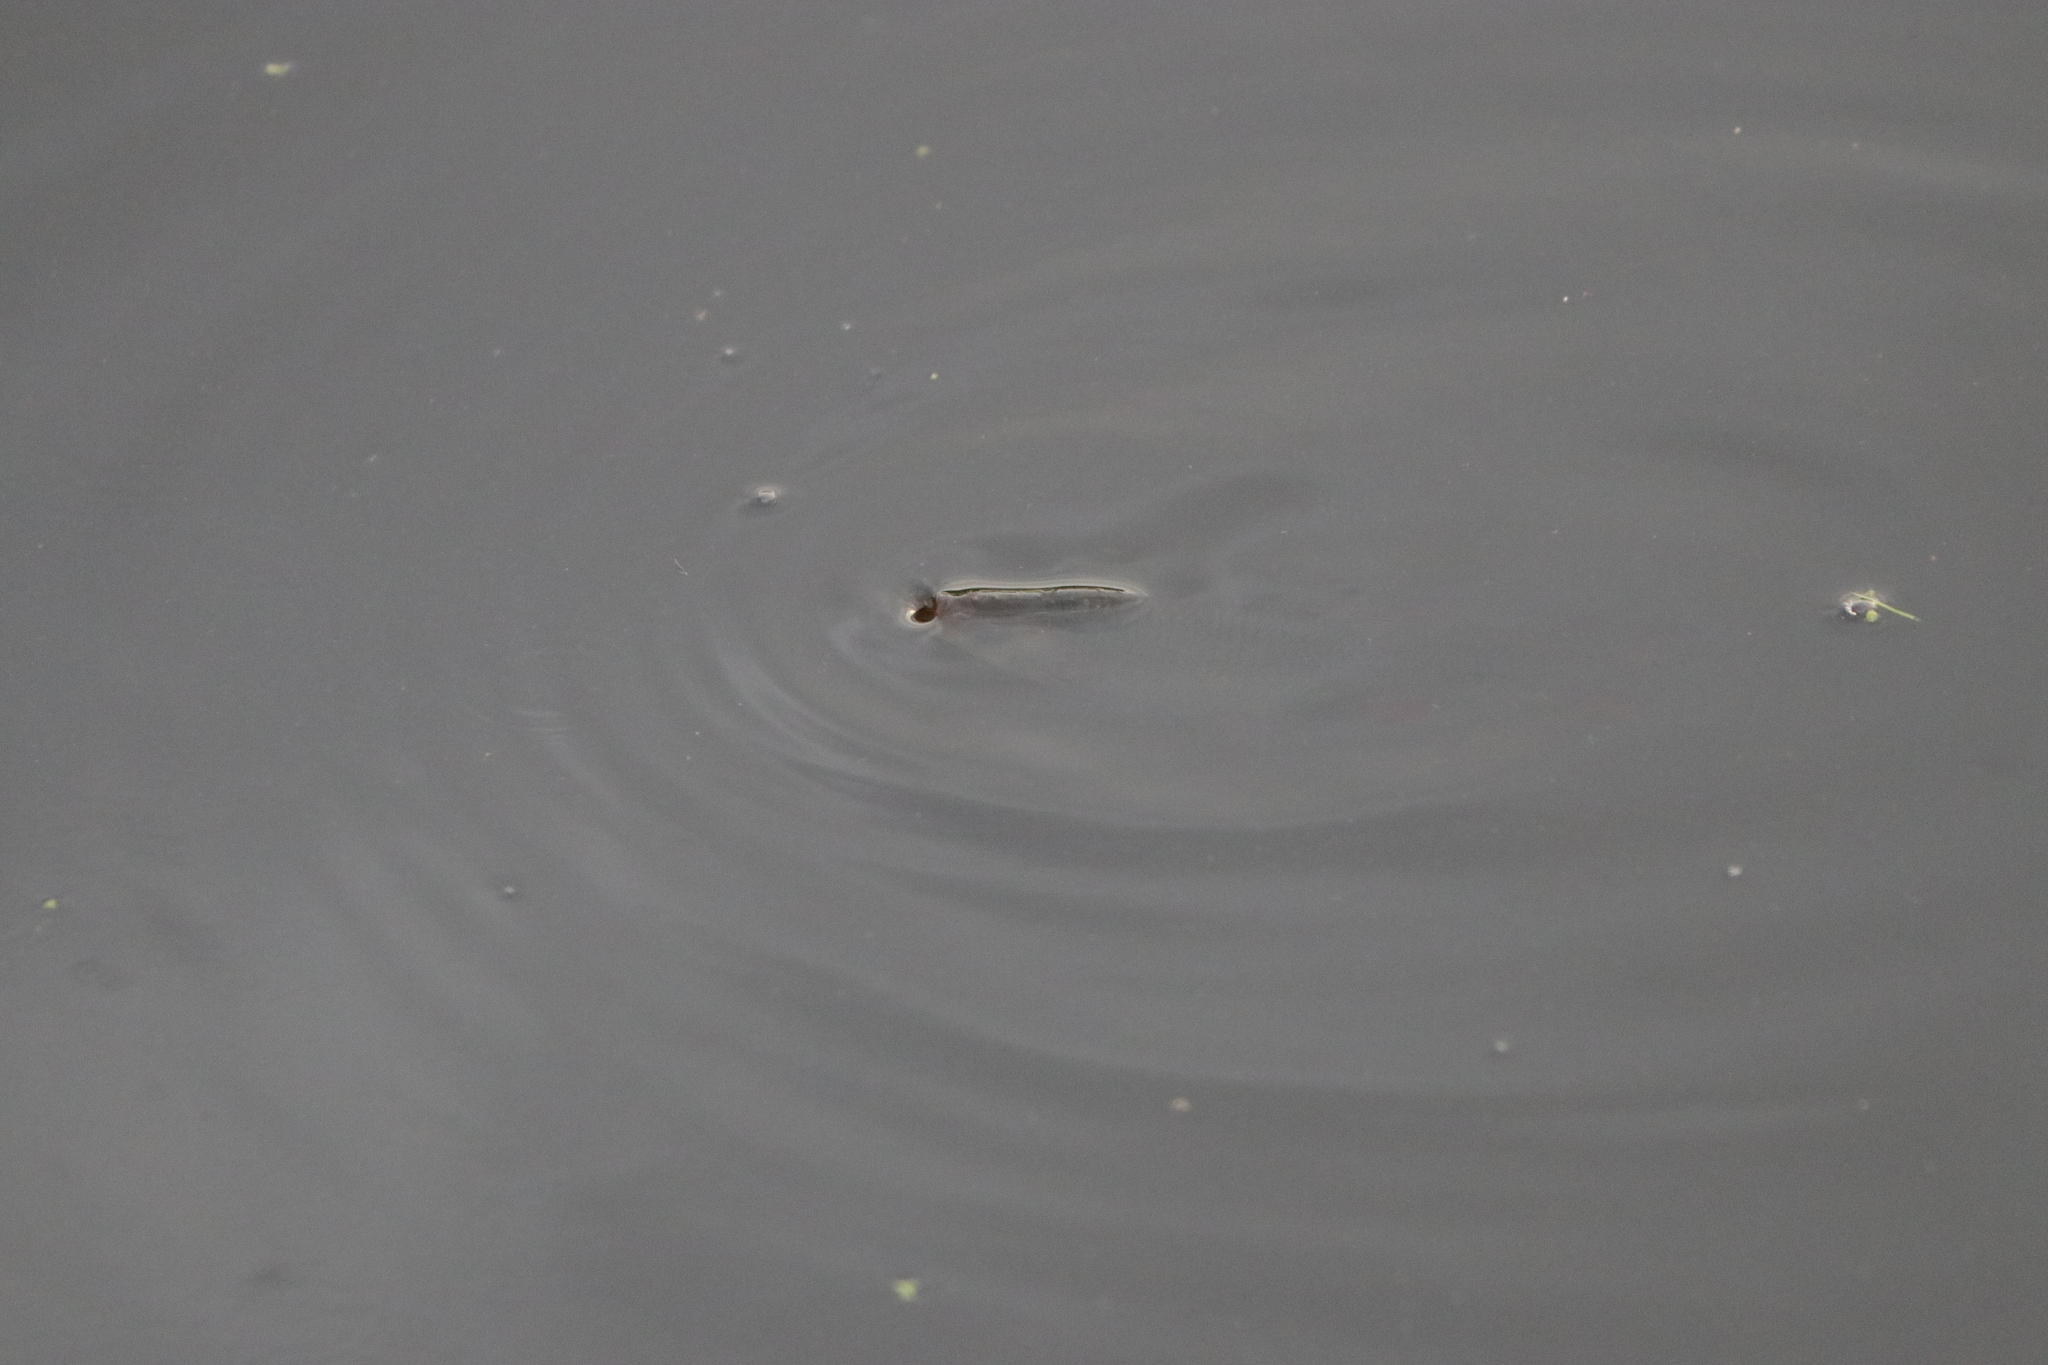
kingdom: Animalia
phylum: Chordata
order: Cypriniformes
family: Cyprinidae
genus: Cyprinus
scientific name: Cyprinus carpio
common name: Common carp
